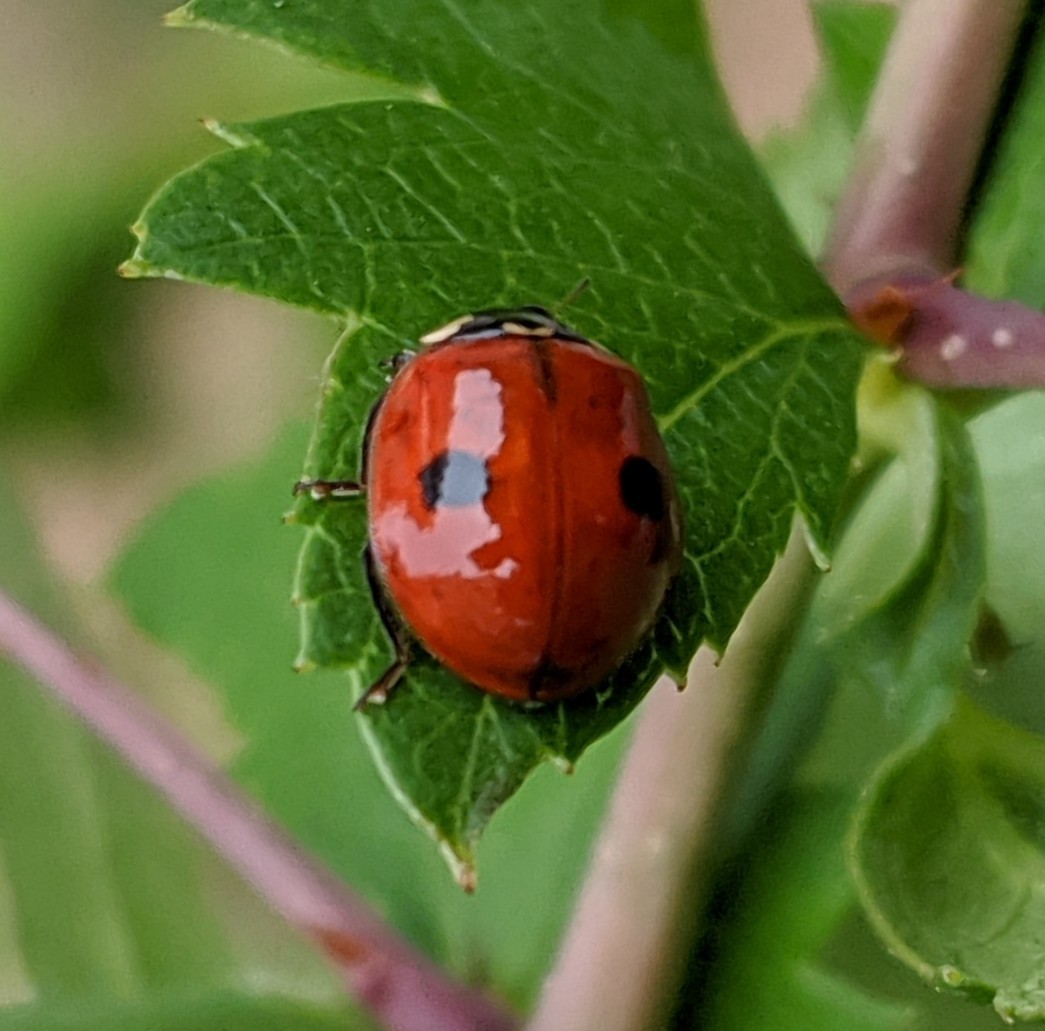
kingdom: Animalia
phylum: Arthropoda
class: Insecta
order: Coleoptera
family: Coccinellidae
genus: Adalia
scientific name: Adalia bipunctata
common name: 2-spot ladybird
